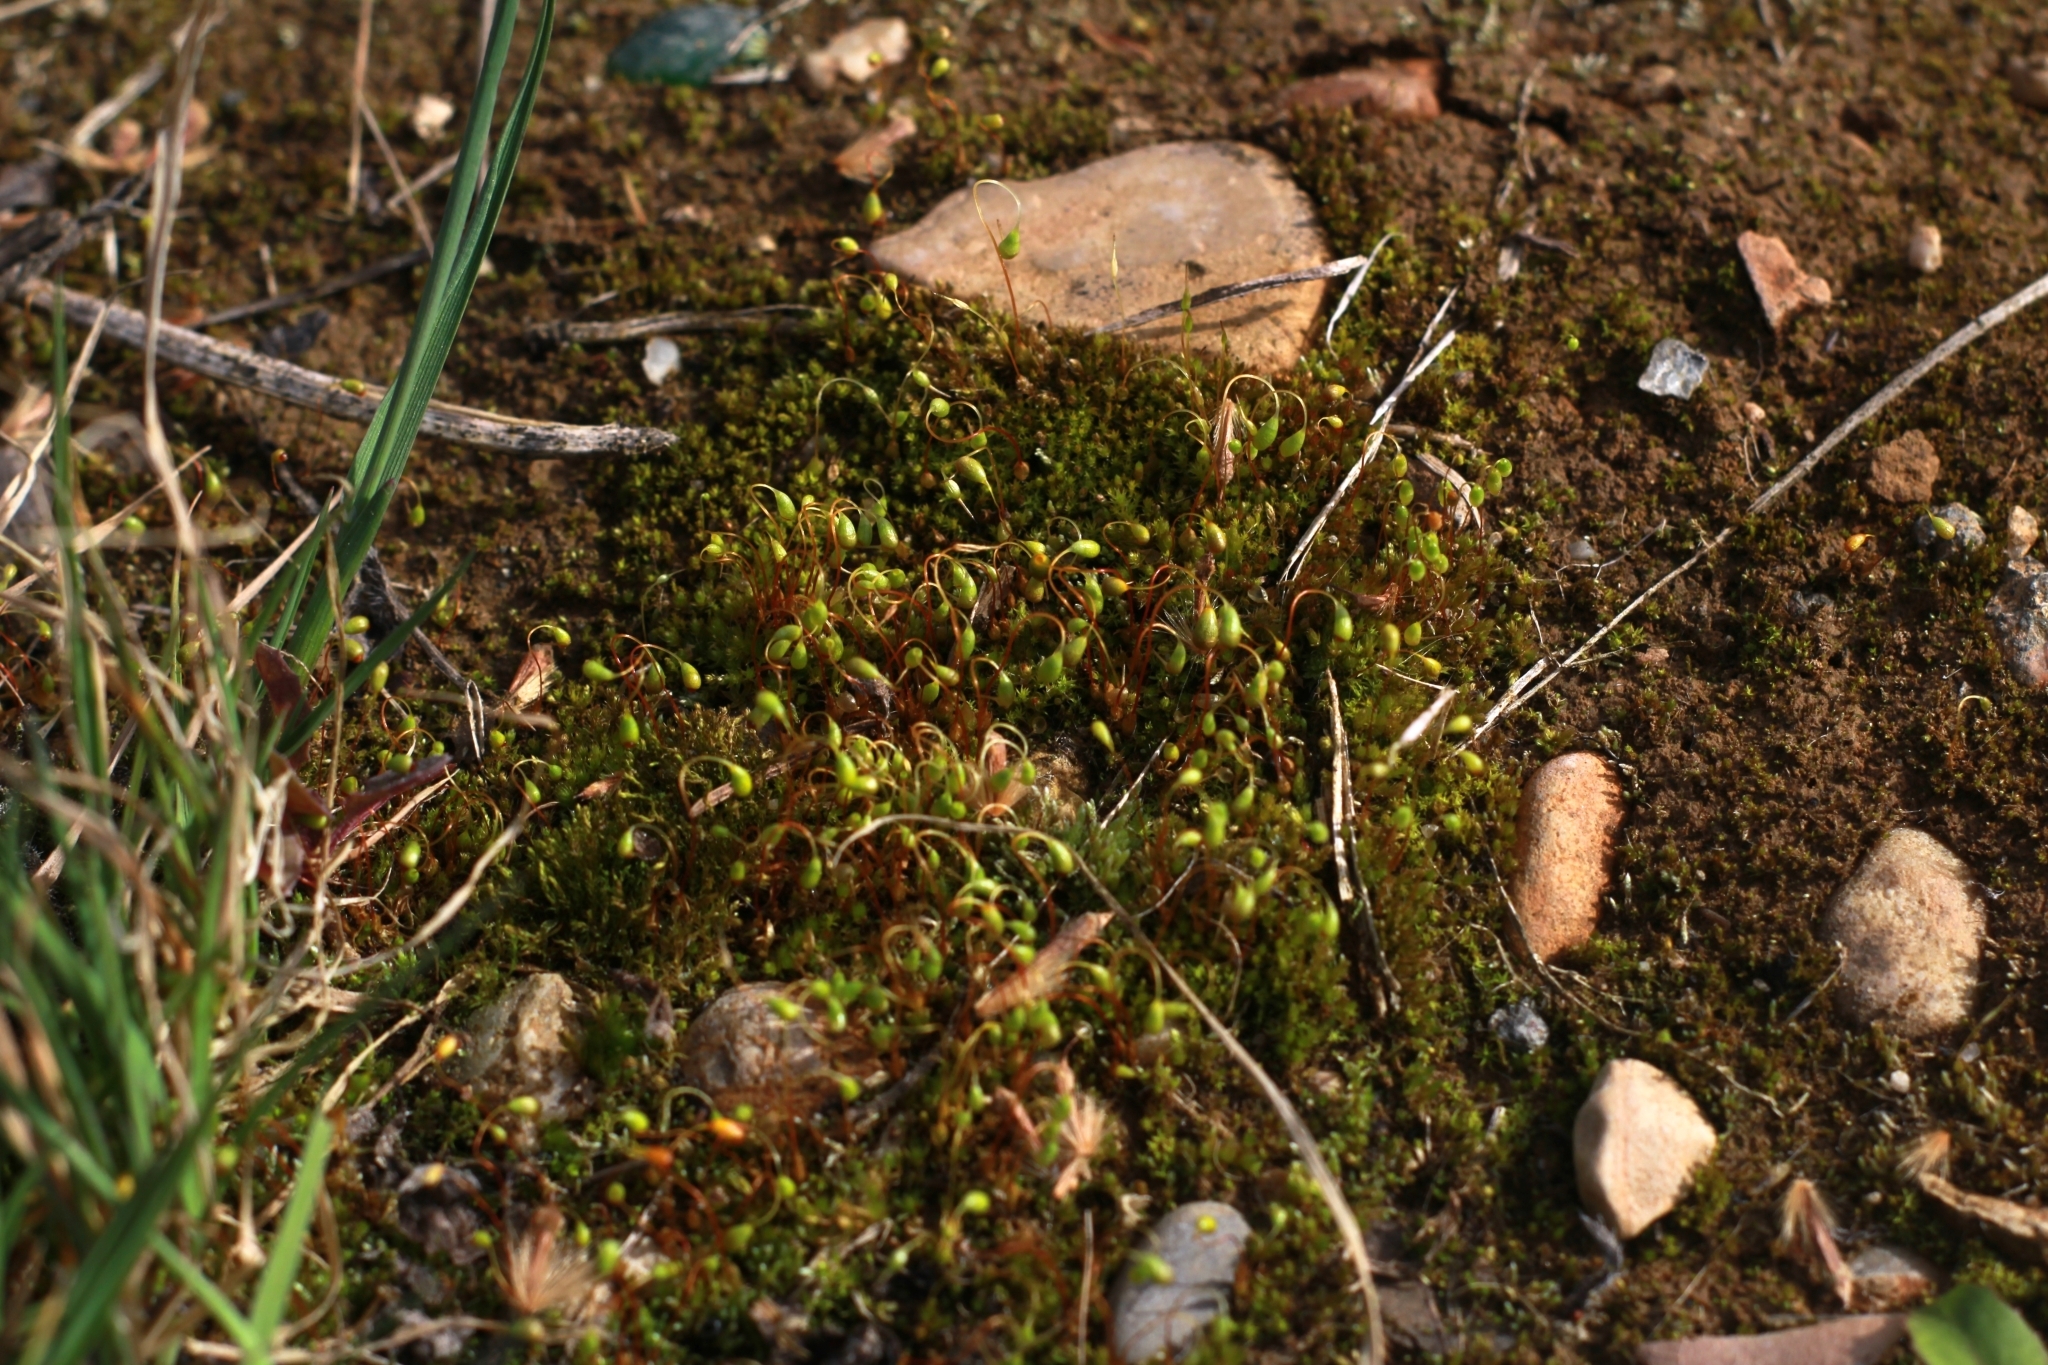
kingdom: Plantae
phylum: Bryophyta
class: Bryopsida
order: Funariales
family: Funariaceae
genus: Funaria
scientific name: Funaria hygrometrica
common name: Common cord moss
